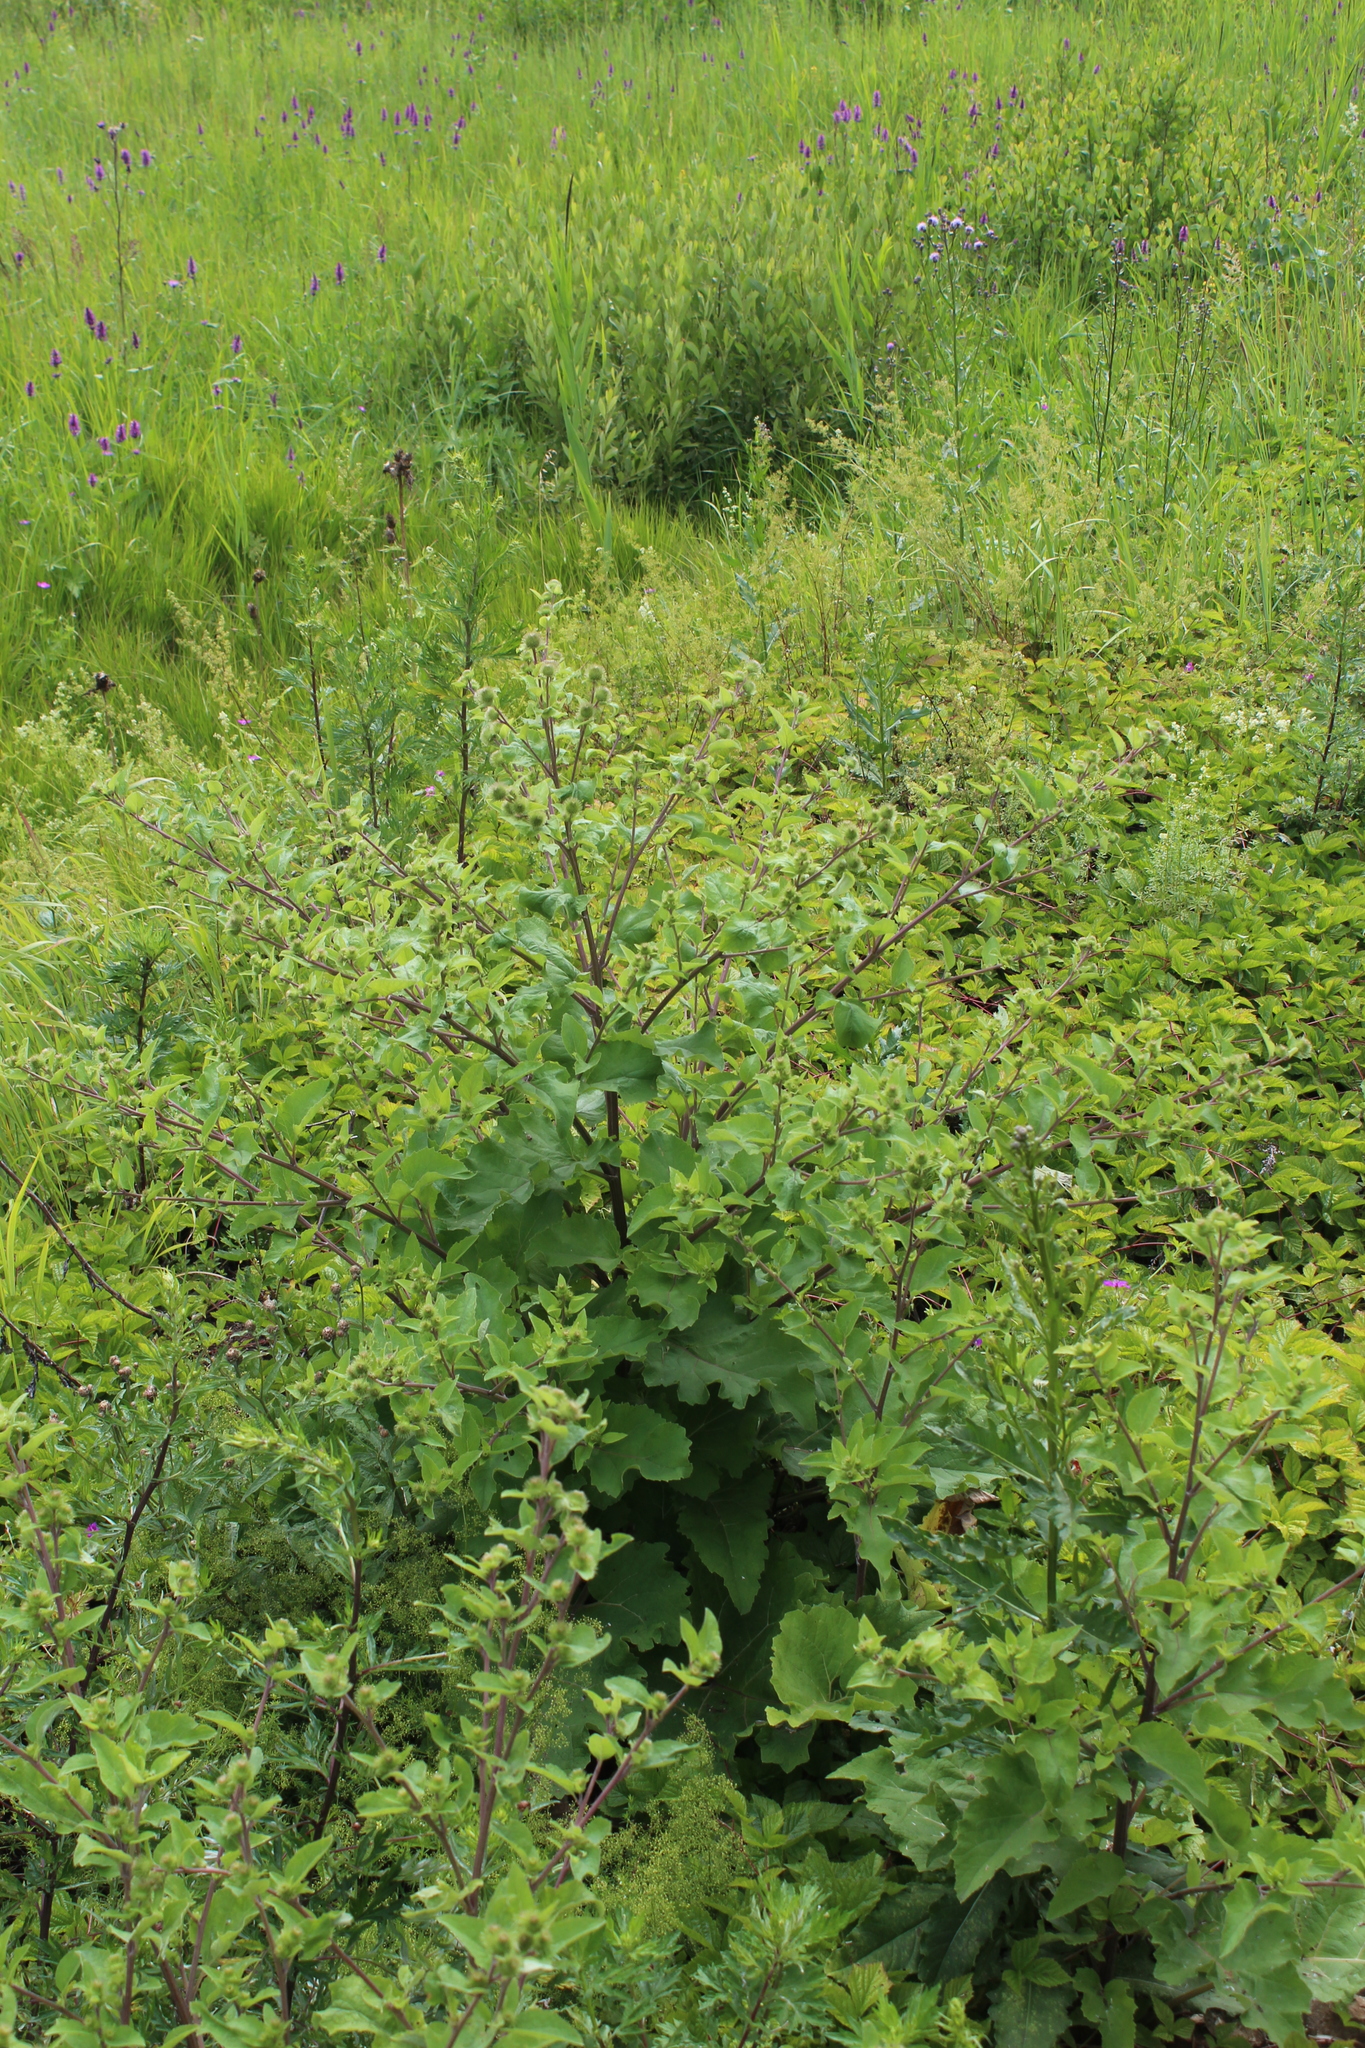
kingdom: Plantae
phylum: Tracheophyta
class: Magnoliopsida
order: Asterales
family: Asteraceae
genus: Arctium
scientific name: Arctium minus
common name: Lesser burdock
